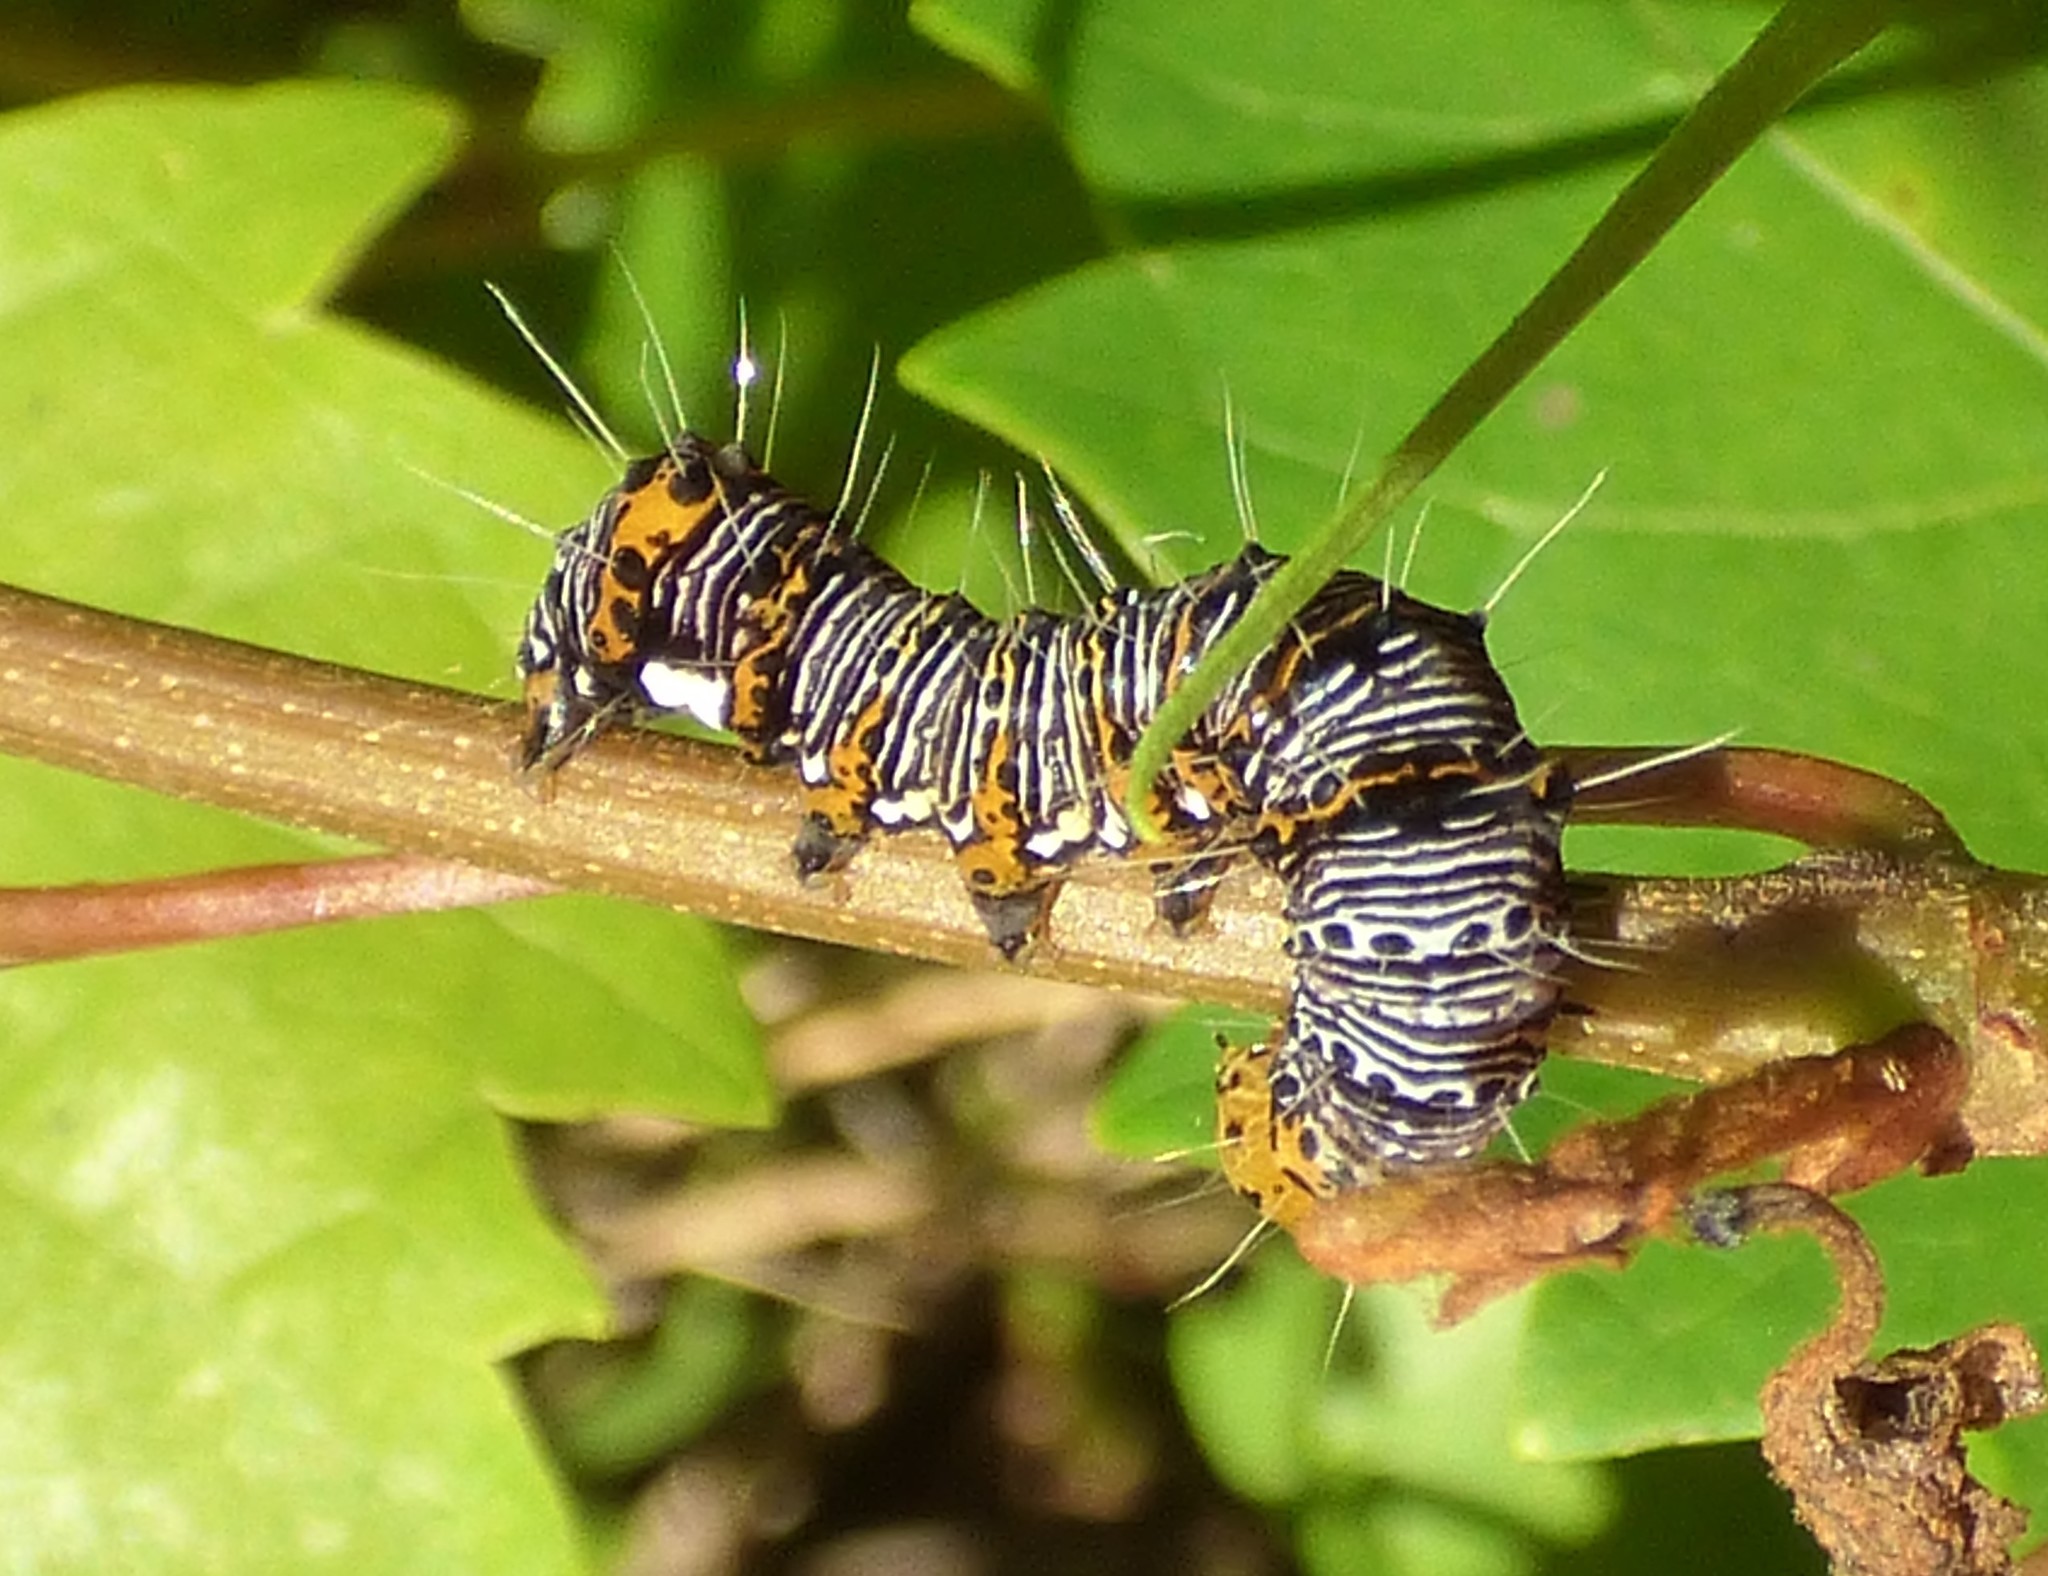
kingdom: Animalia
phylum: Arthropoda
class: Insecta
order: Lepidoptera
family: Noctuidae
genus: Alypia
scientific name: Alypia octomaculata
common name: Eight-spotted forester
